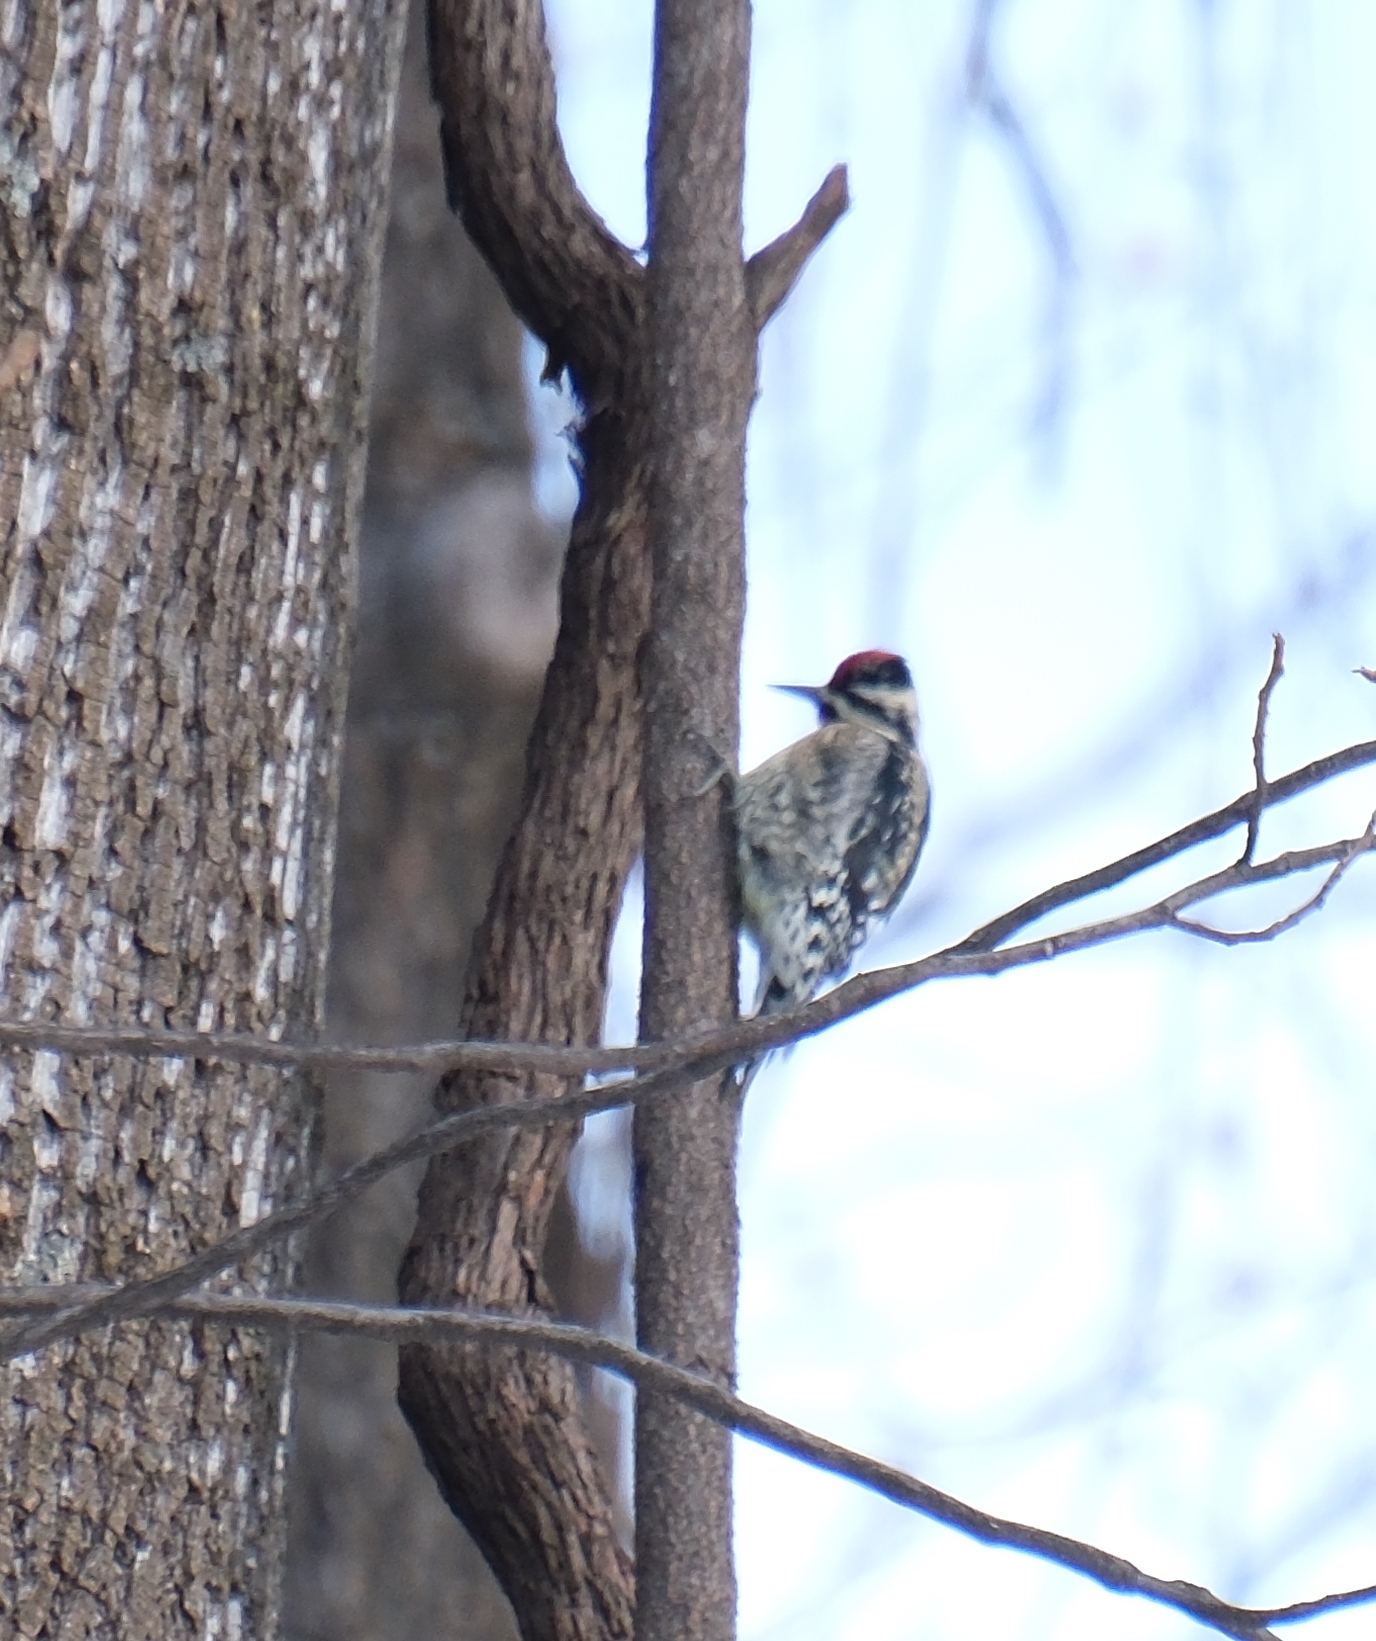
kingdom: Animalia
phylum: Chordata
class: Aves
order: Piciformes
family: Picidae
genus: Sphyrapicus
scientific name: Sphyrapicus varius
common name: Yellow-bellied sapsucker
